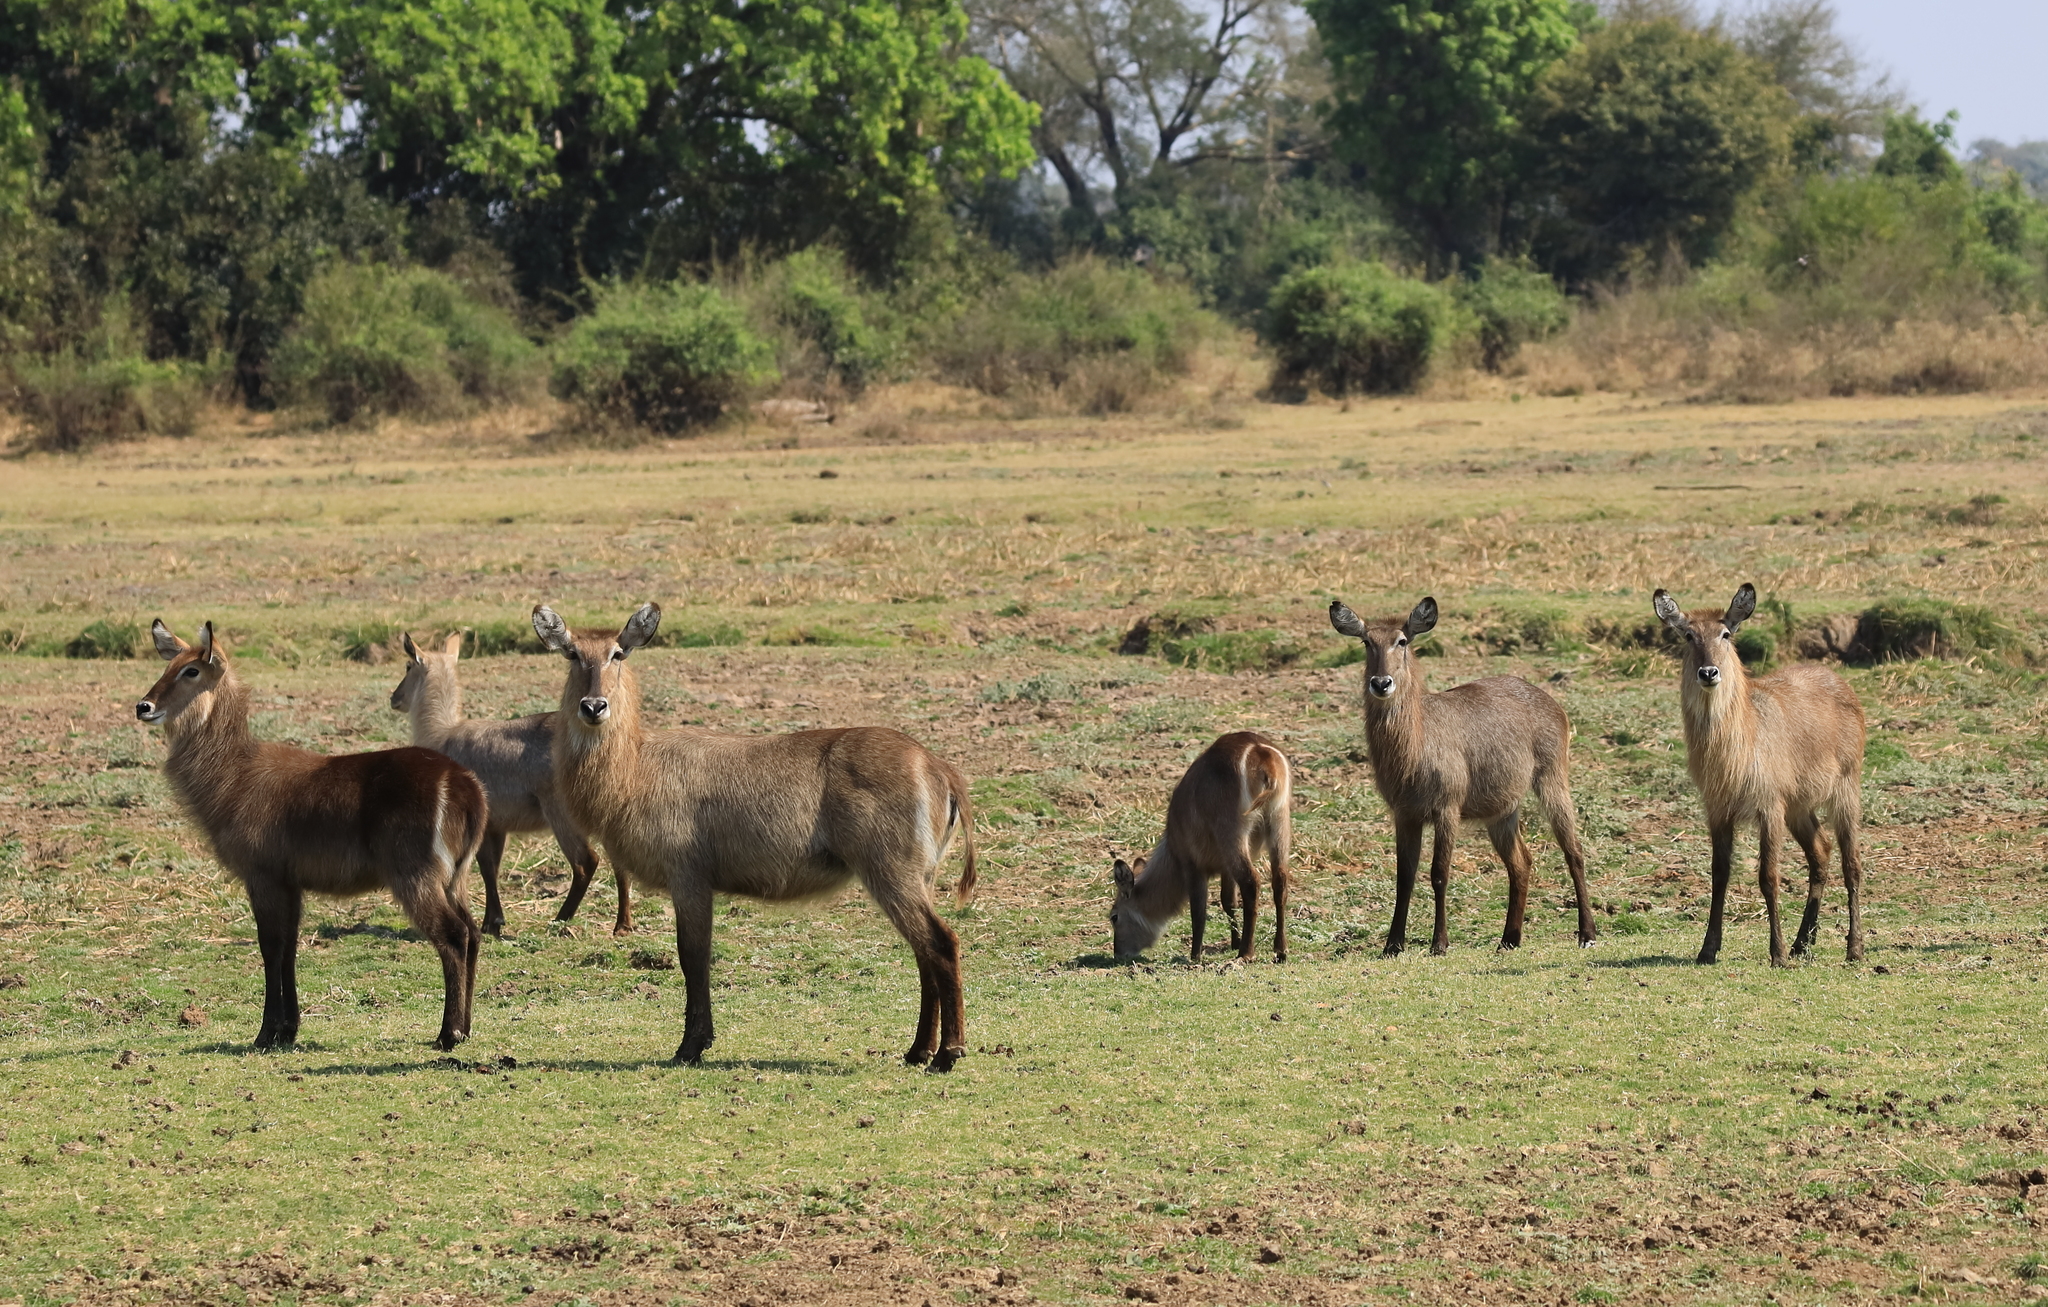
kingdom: Animalia
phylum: Chordata
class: Mammalia
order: Artiodactyla
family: Bovidae
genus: Kobus
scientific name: Kobus ellipsiprymnus
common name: Waterbuck
